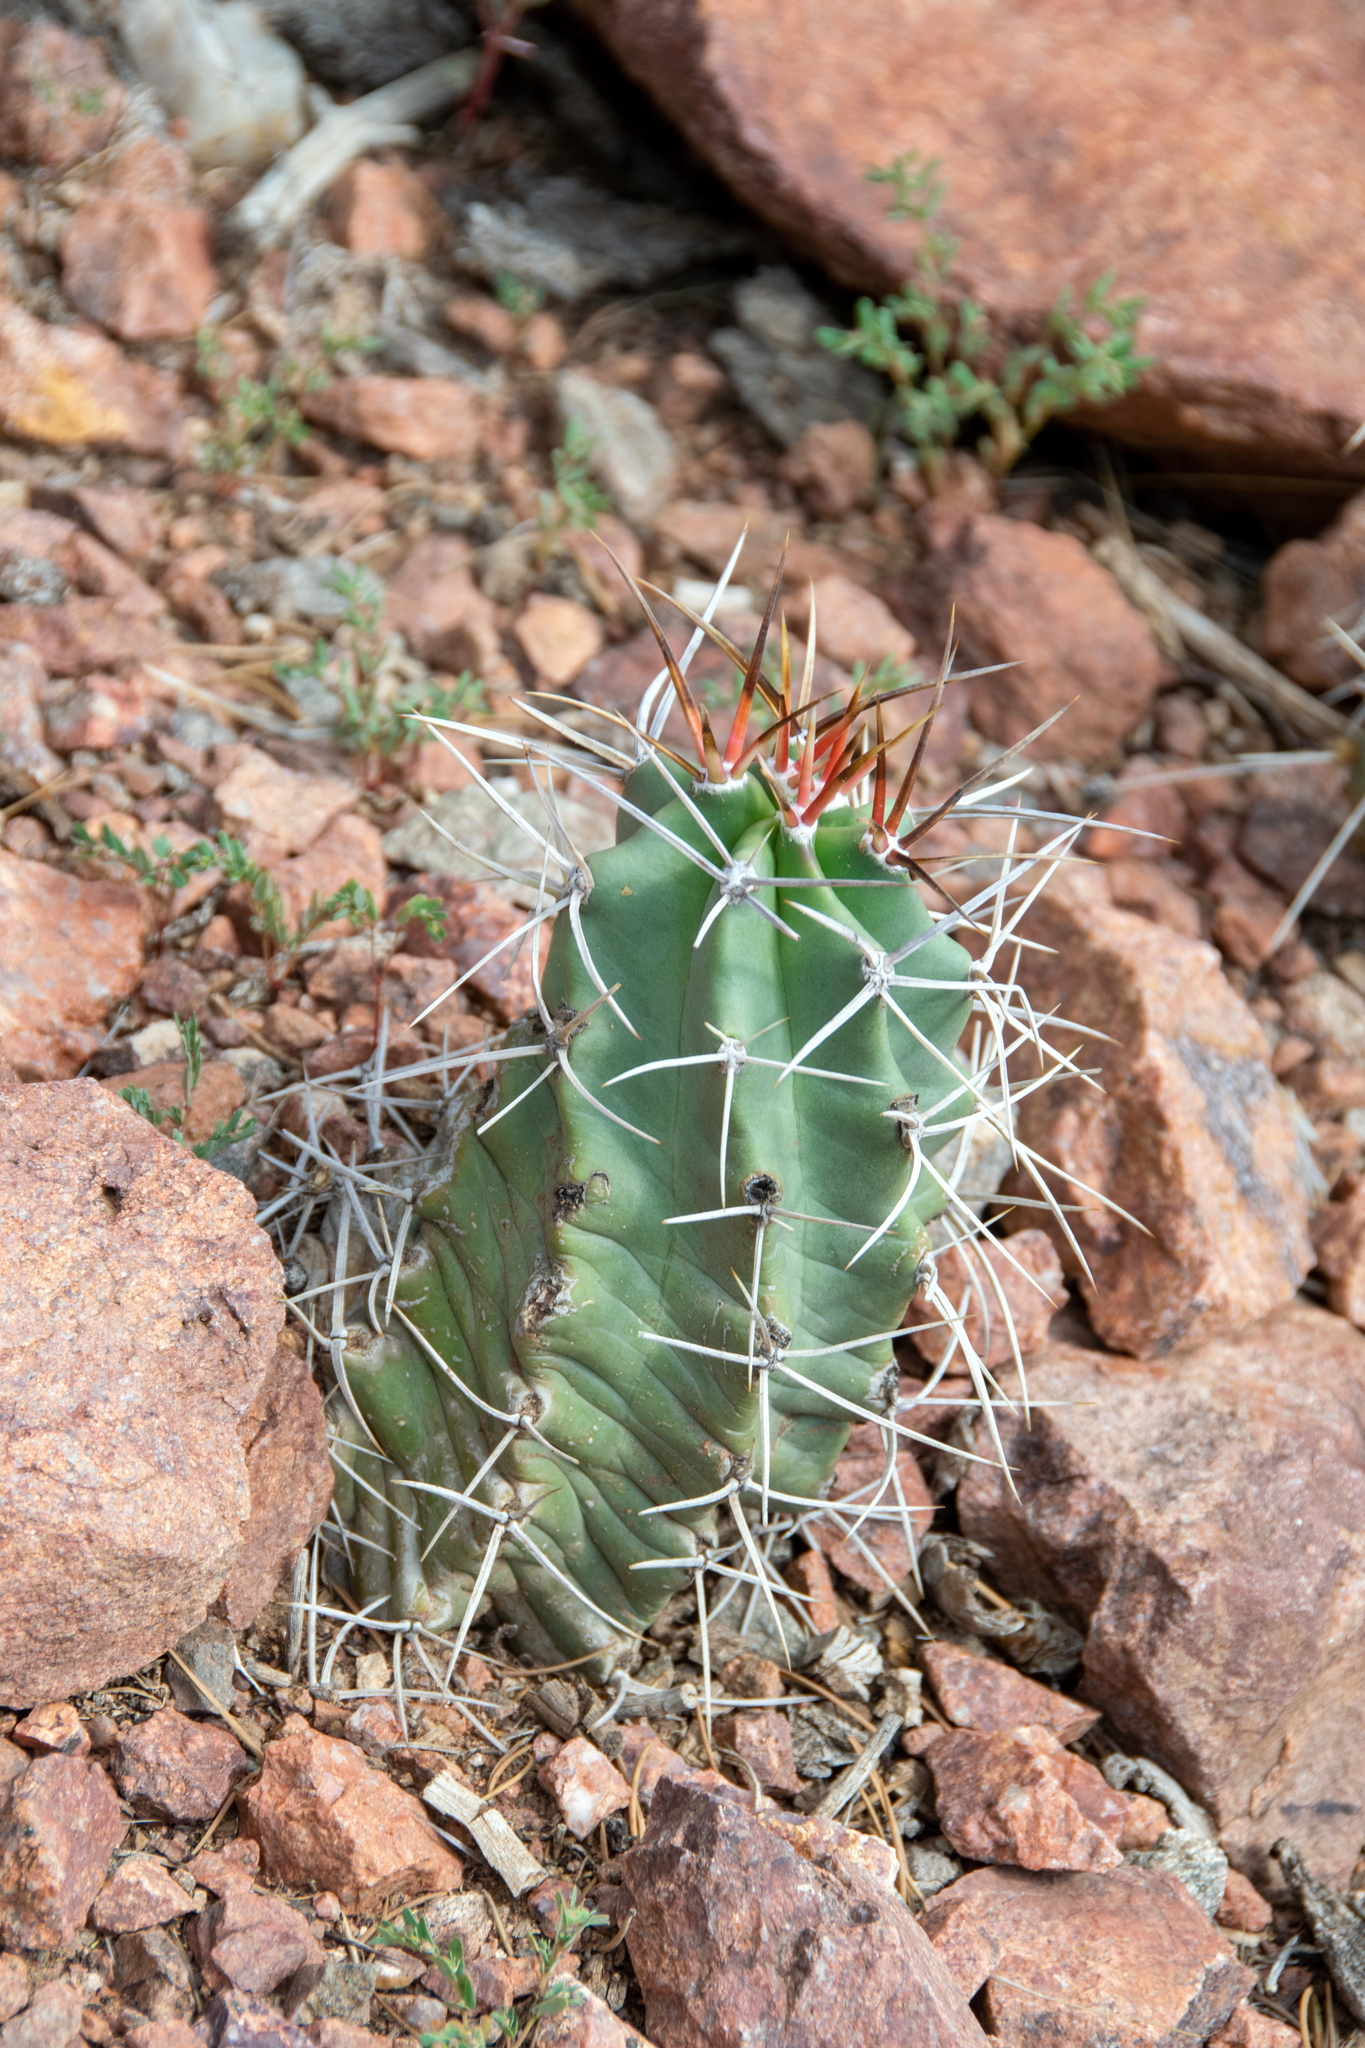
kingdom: Plantae
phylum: Tracheophyta
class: Magnoliopsida
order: Caryophyllales
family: Cactaceae
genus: Echinocereus
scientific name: Echinocereus triglochidiatus
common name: Claretcup hedgehog
